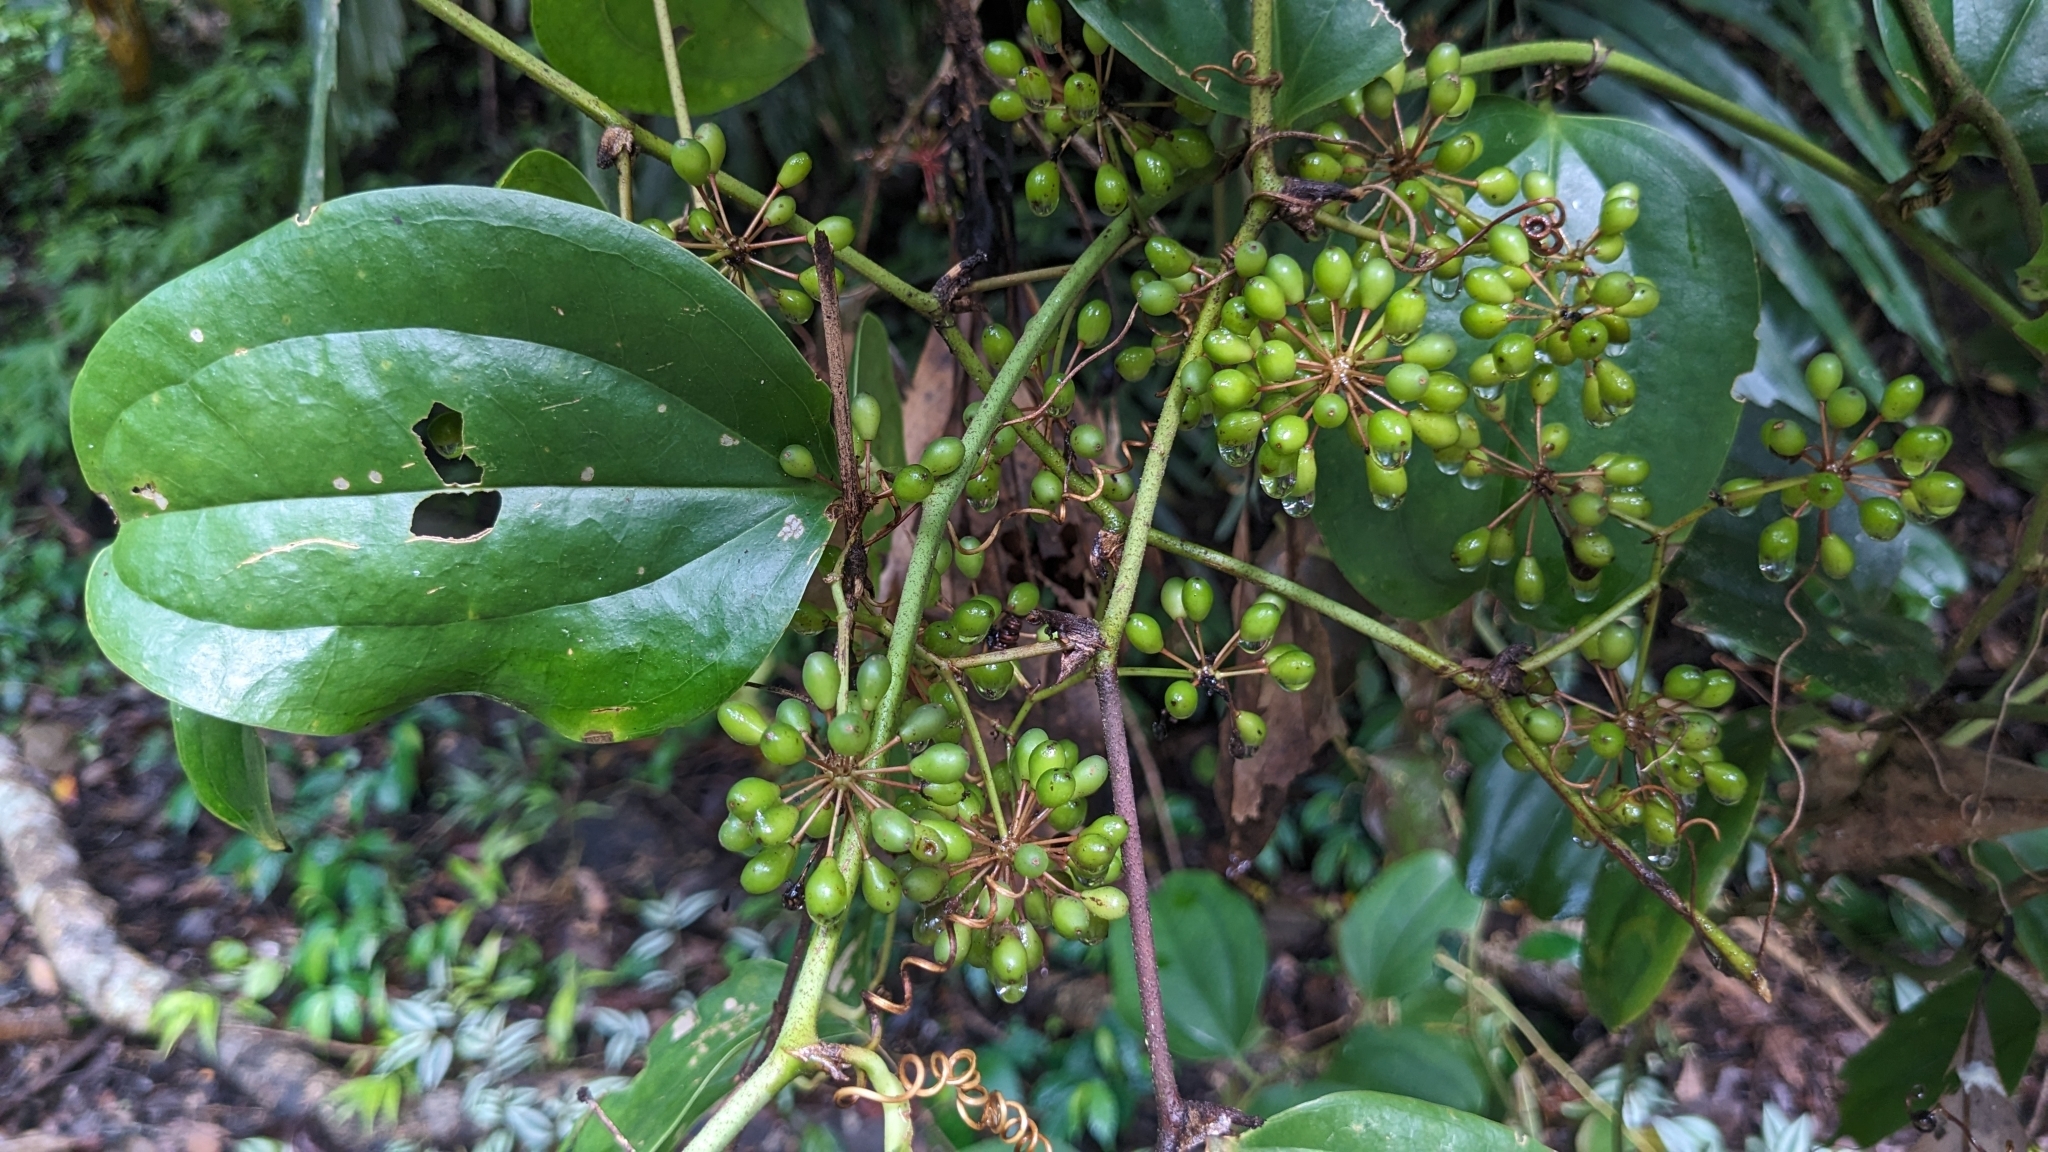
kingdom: Plantae
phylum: Tracheophyta
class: Liliopsida
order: Liliales
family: Smilacaceae
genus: Smilax
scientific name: Smilax aspericaulis
